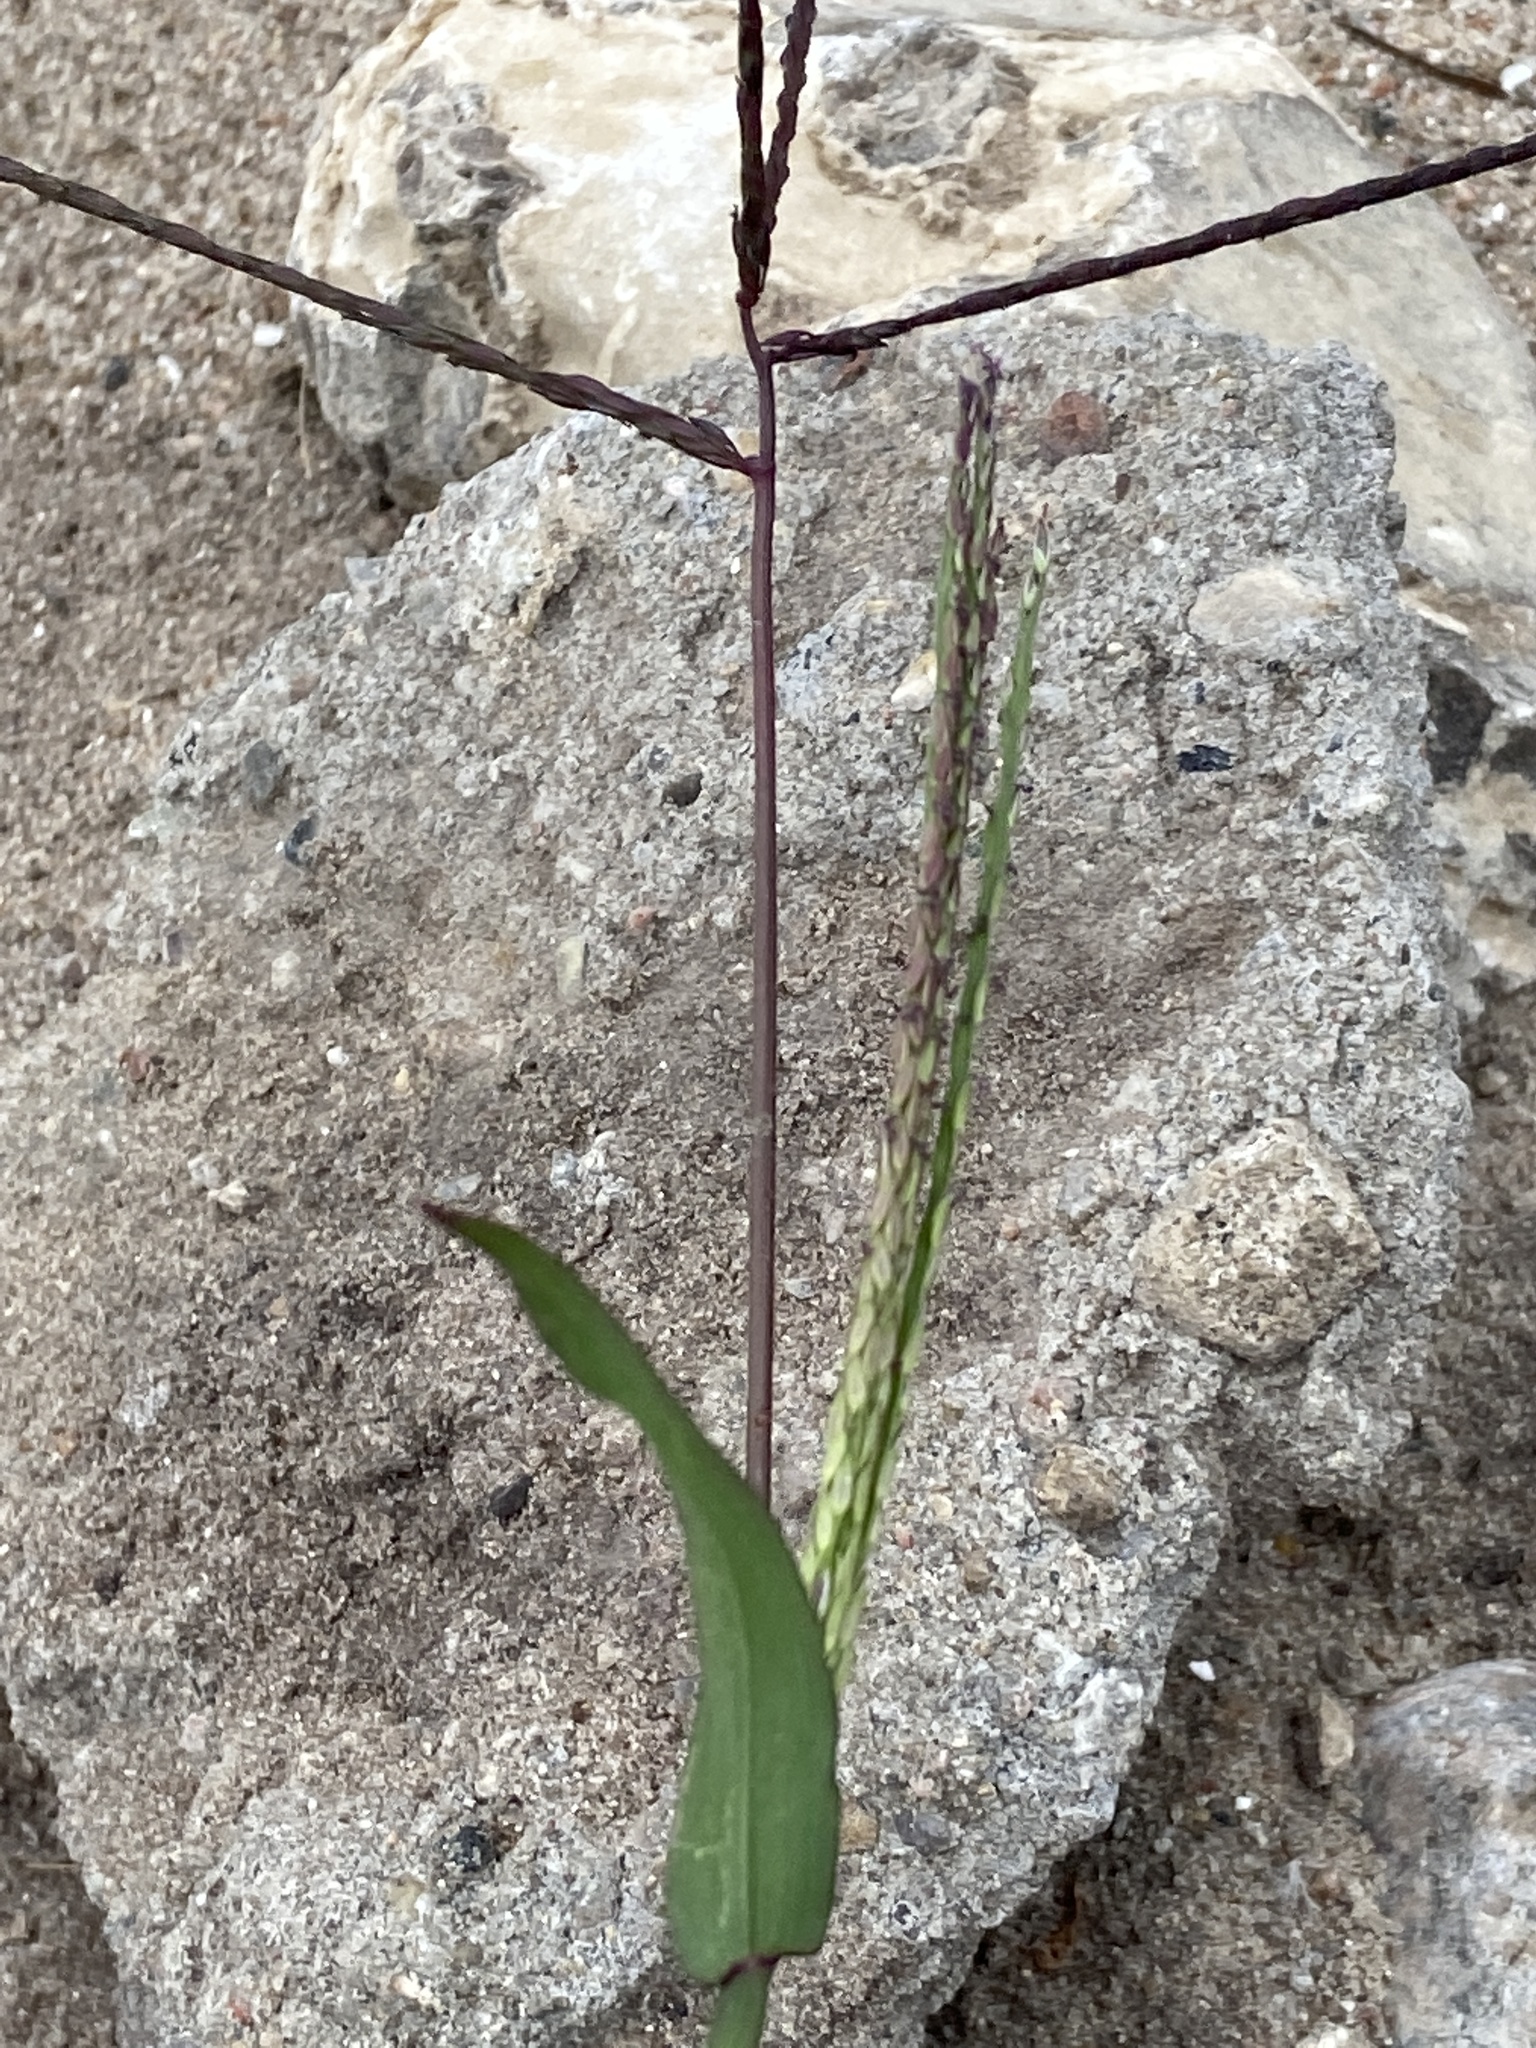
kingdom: Plantae
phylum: Tracheophyta
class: Liliopsida
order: Poales
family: Poaceae
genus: Digitaria
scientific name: Digitaria sanguinalis
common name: Hairy crabgrass
